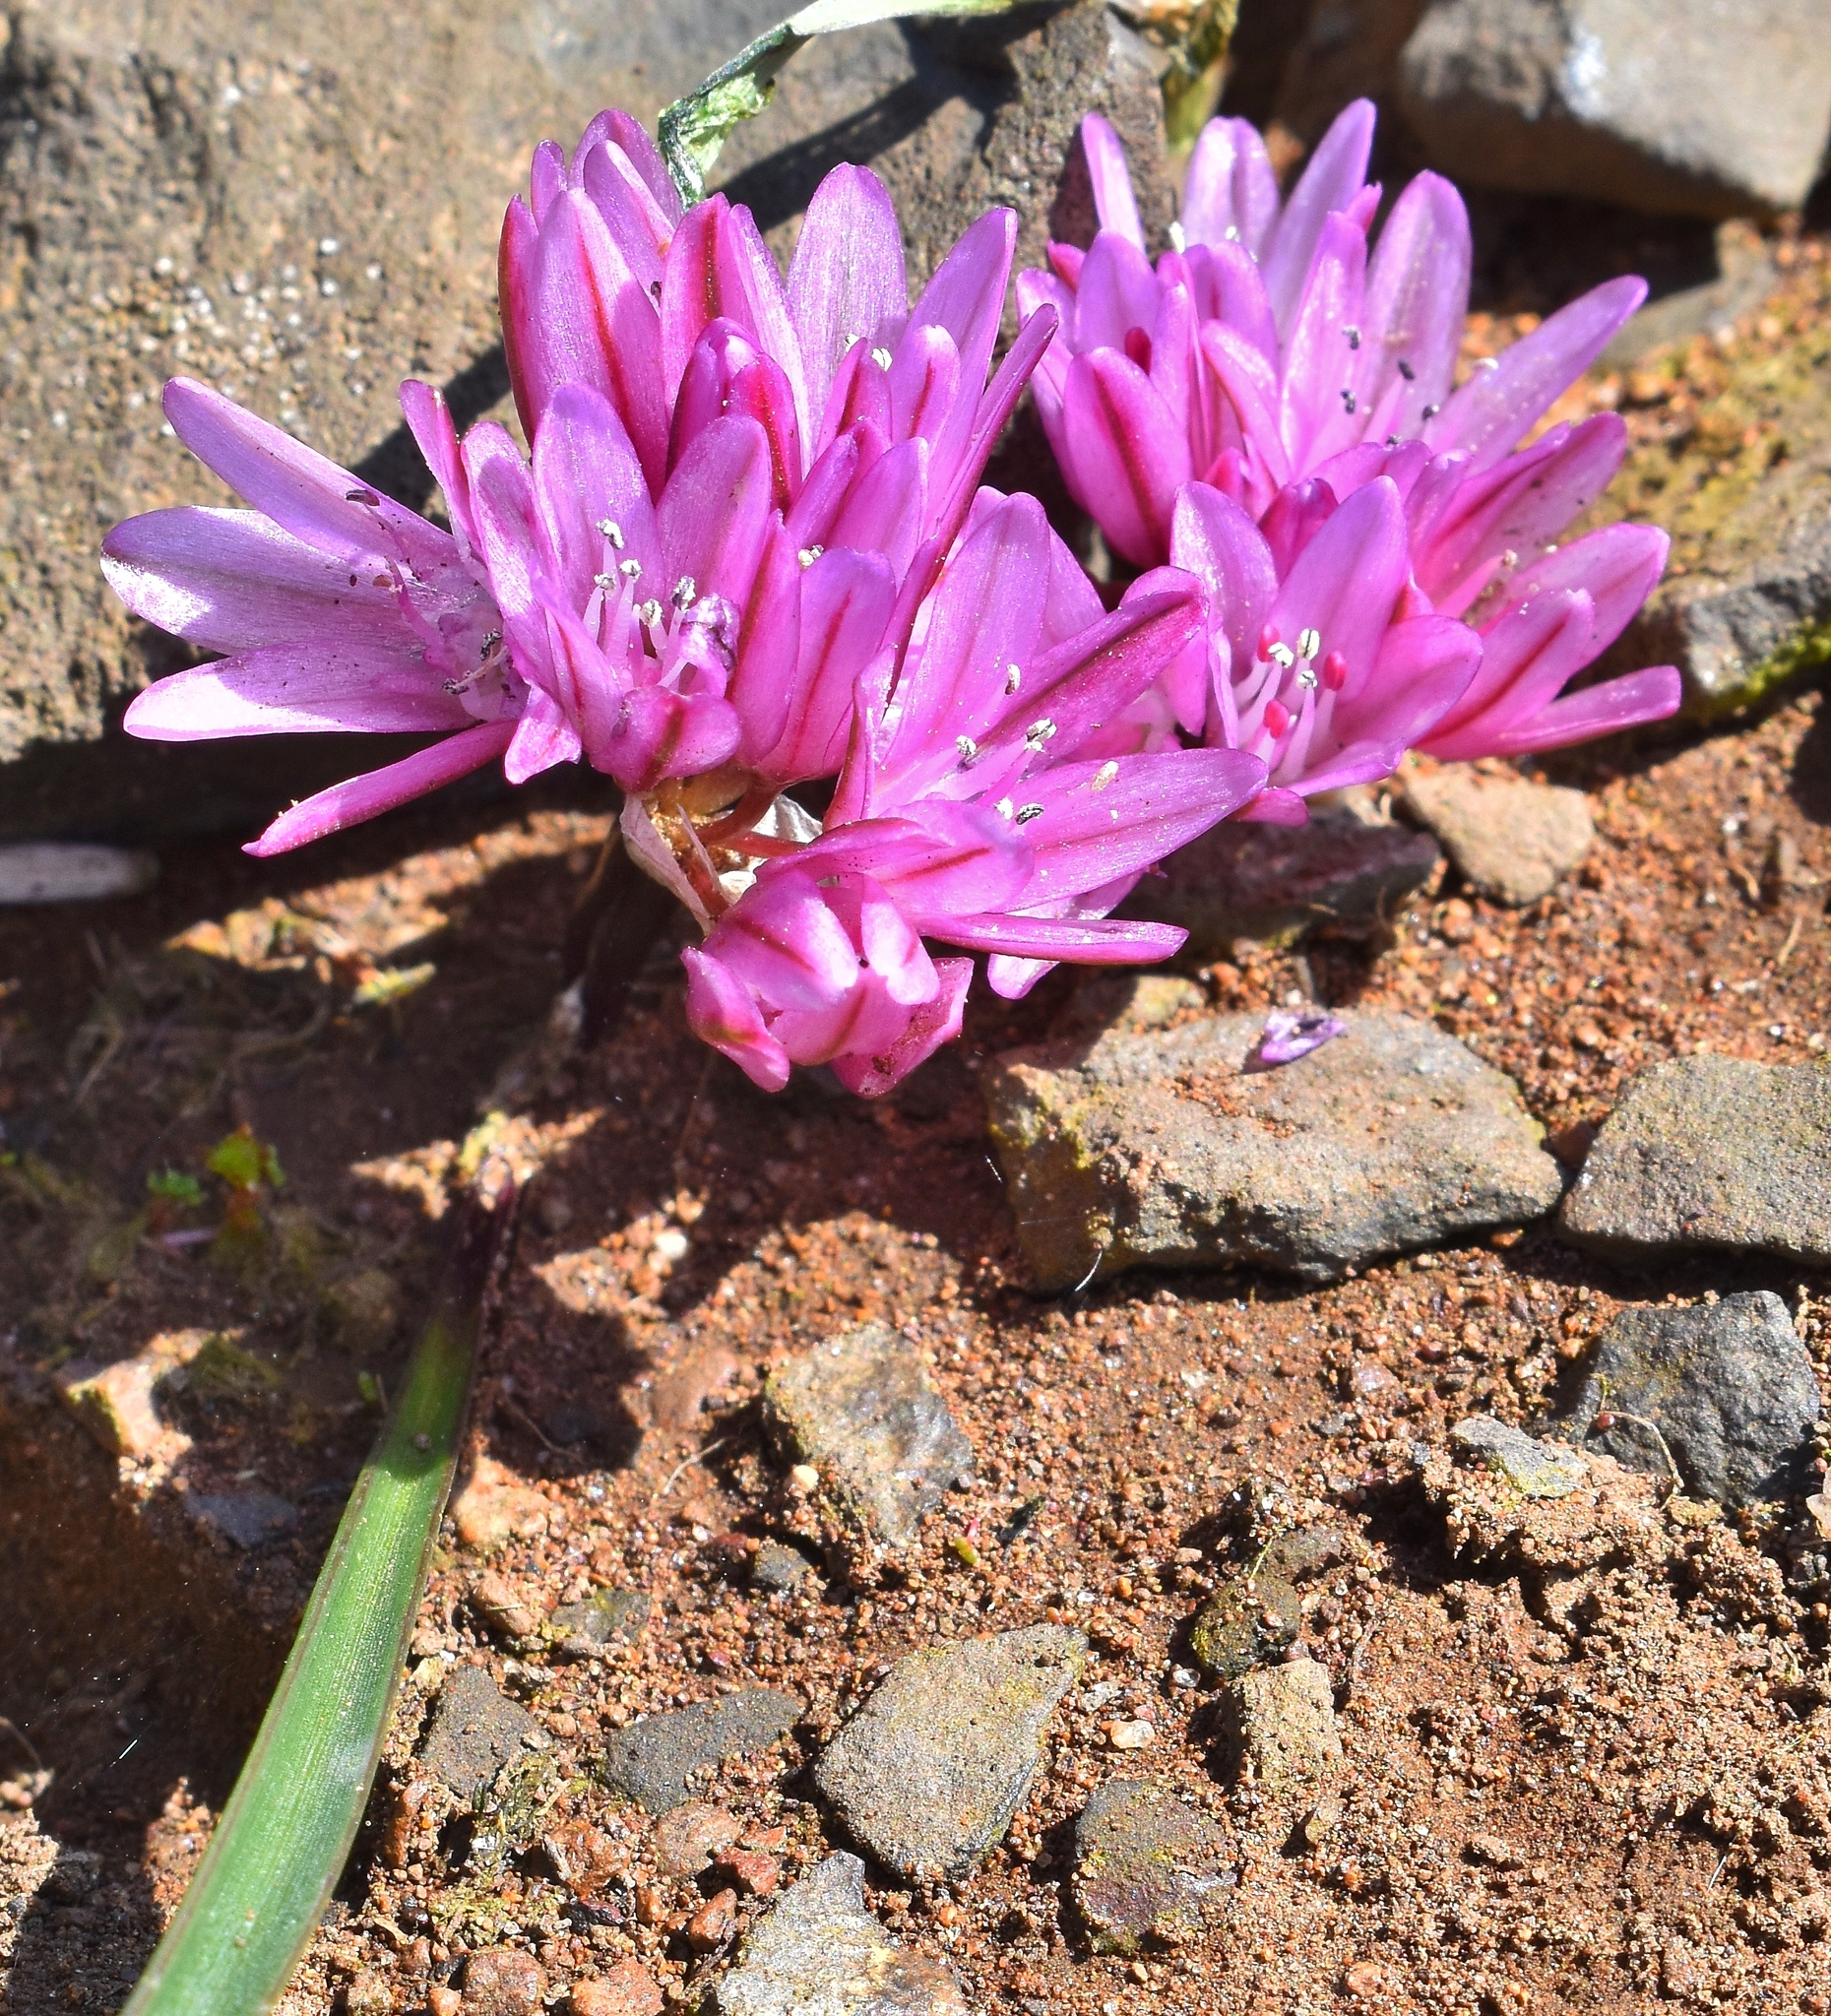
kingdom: Plantae
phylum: Tracheophyta
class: Liliopsida
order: Asparagales
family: Amaryllidaceae
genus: Allium
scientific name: Allium cratericola
